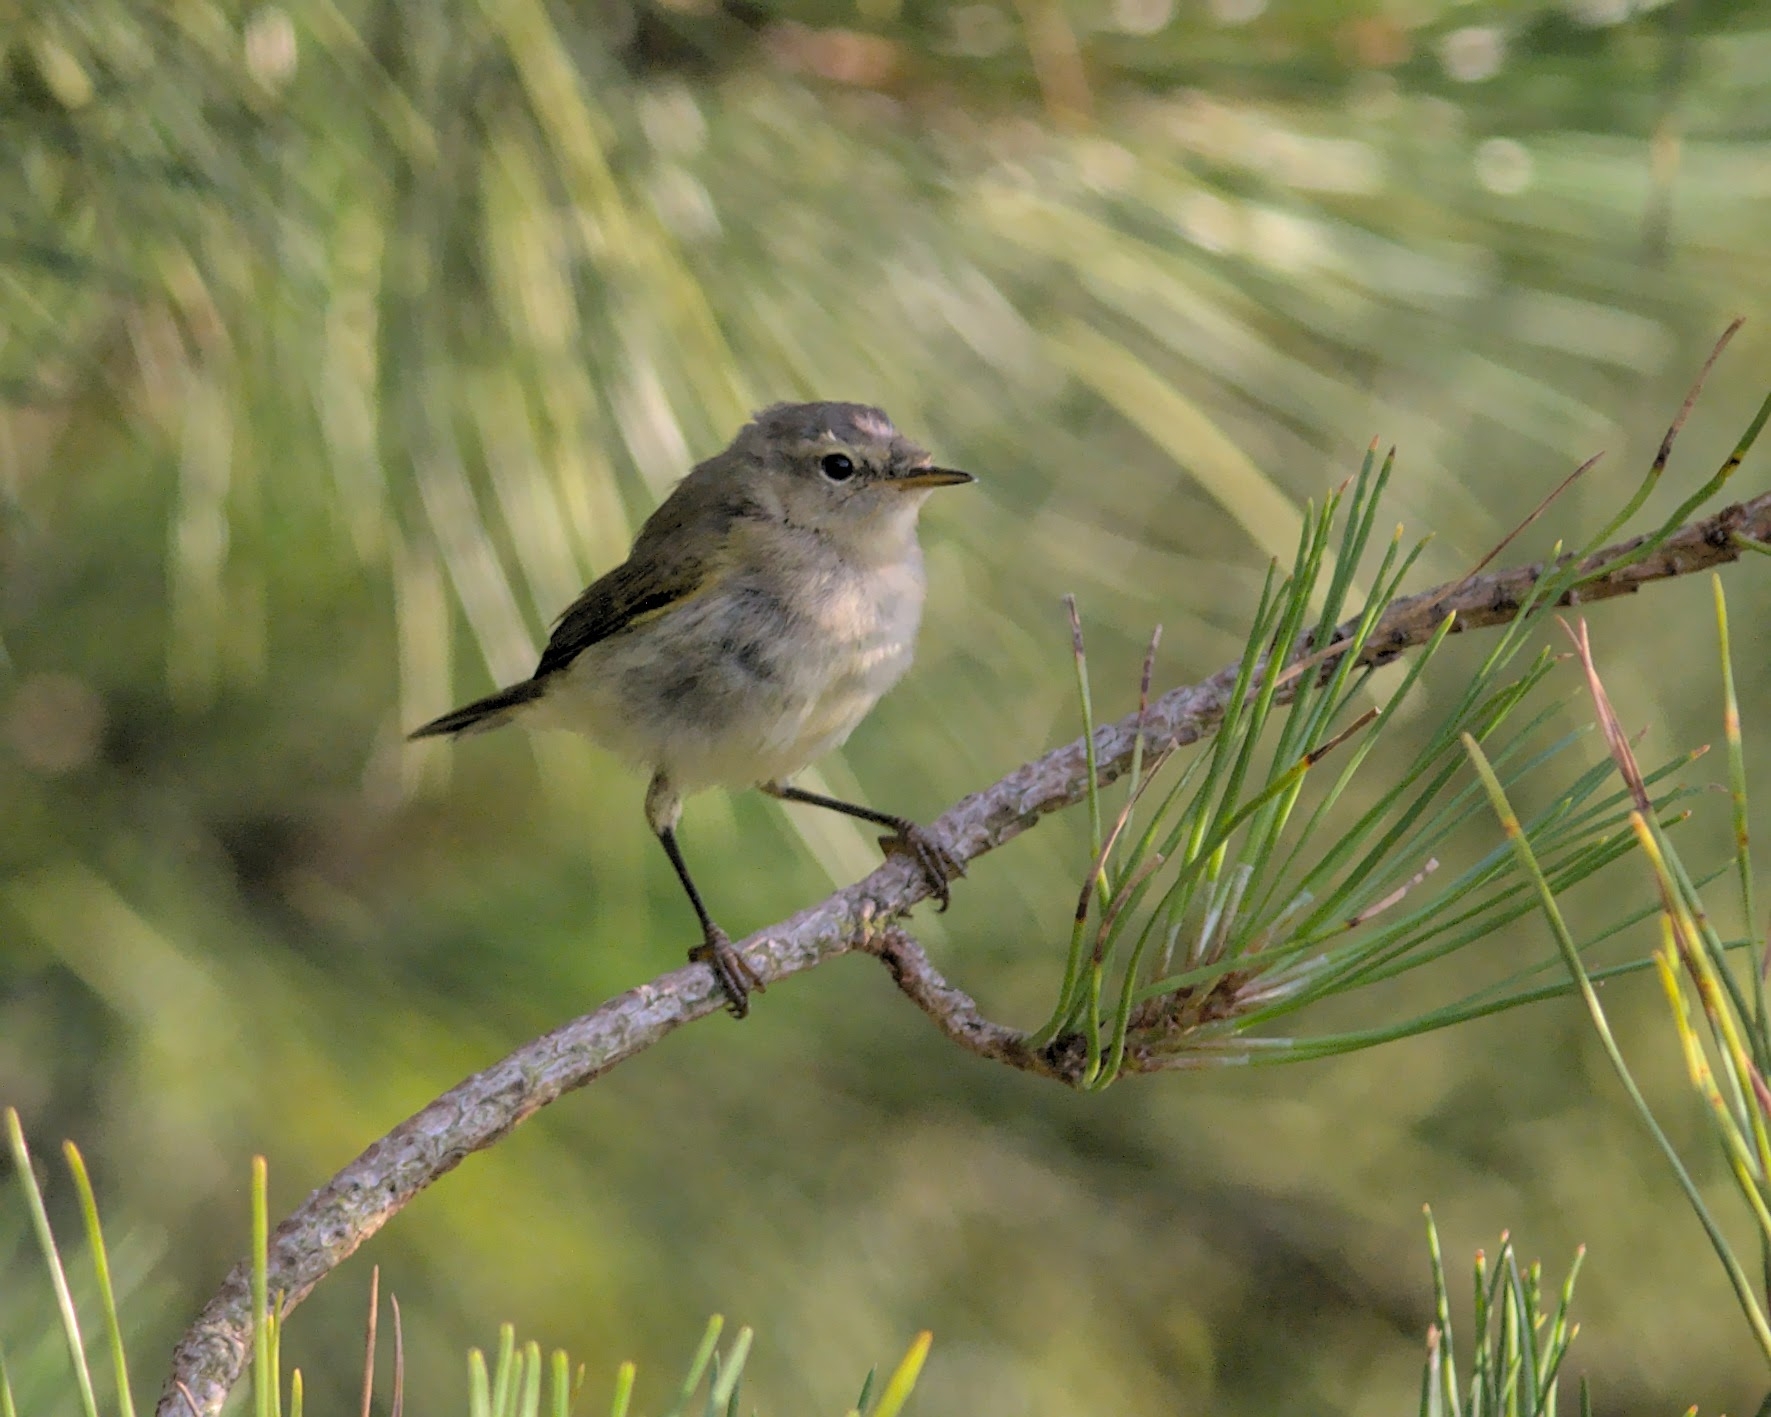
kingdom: Animalia
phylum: Chordata
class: Aves
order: Passeriformes
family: Phylloscopidae
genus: Phylloscopus
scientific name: Phylloscopus collybita
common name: Common chiffchaff
